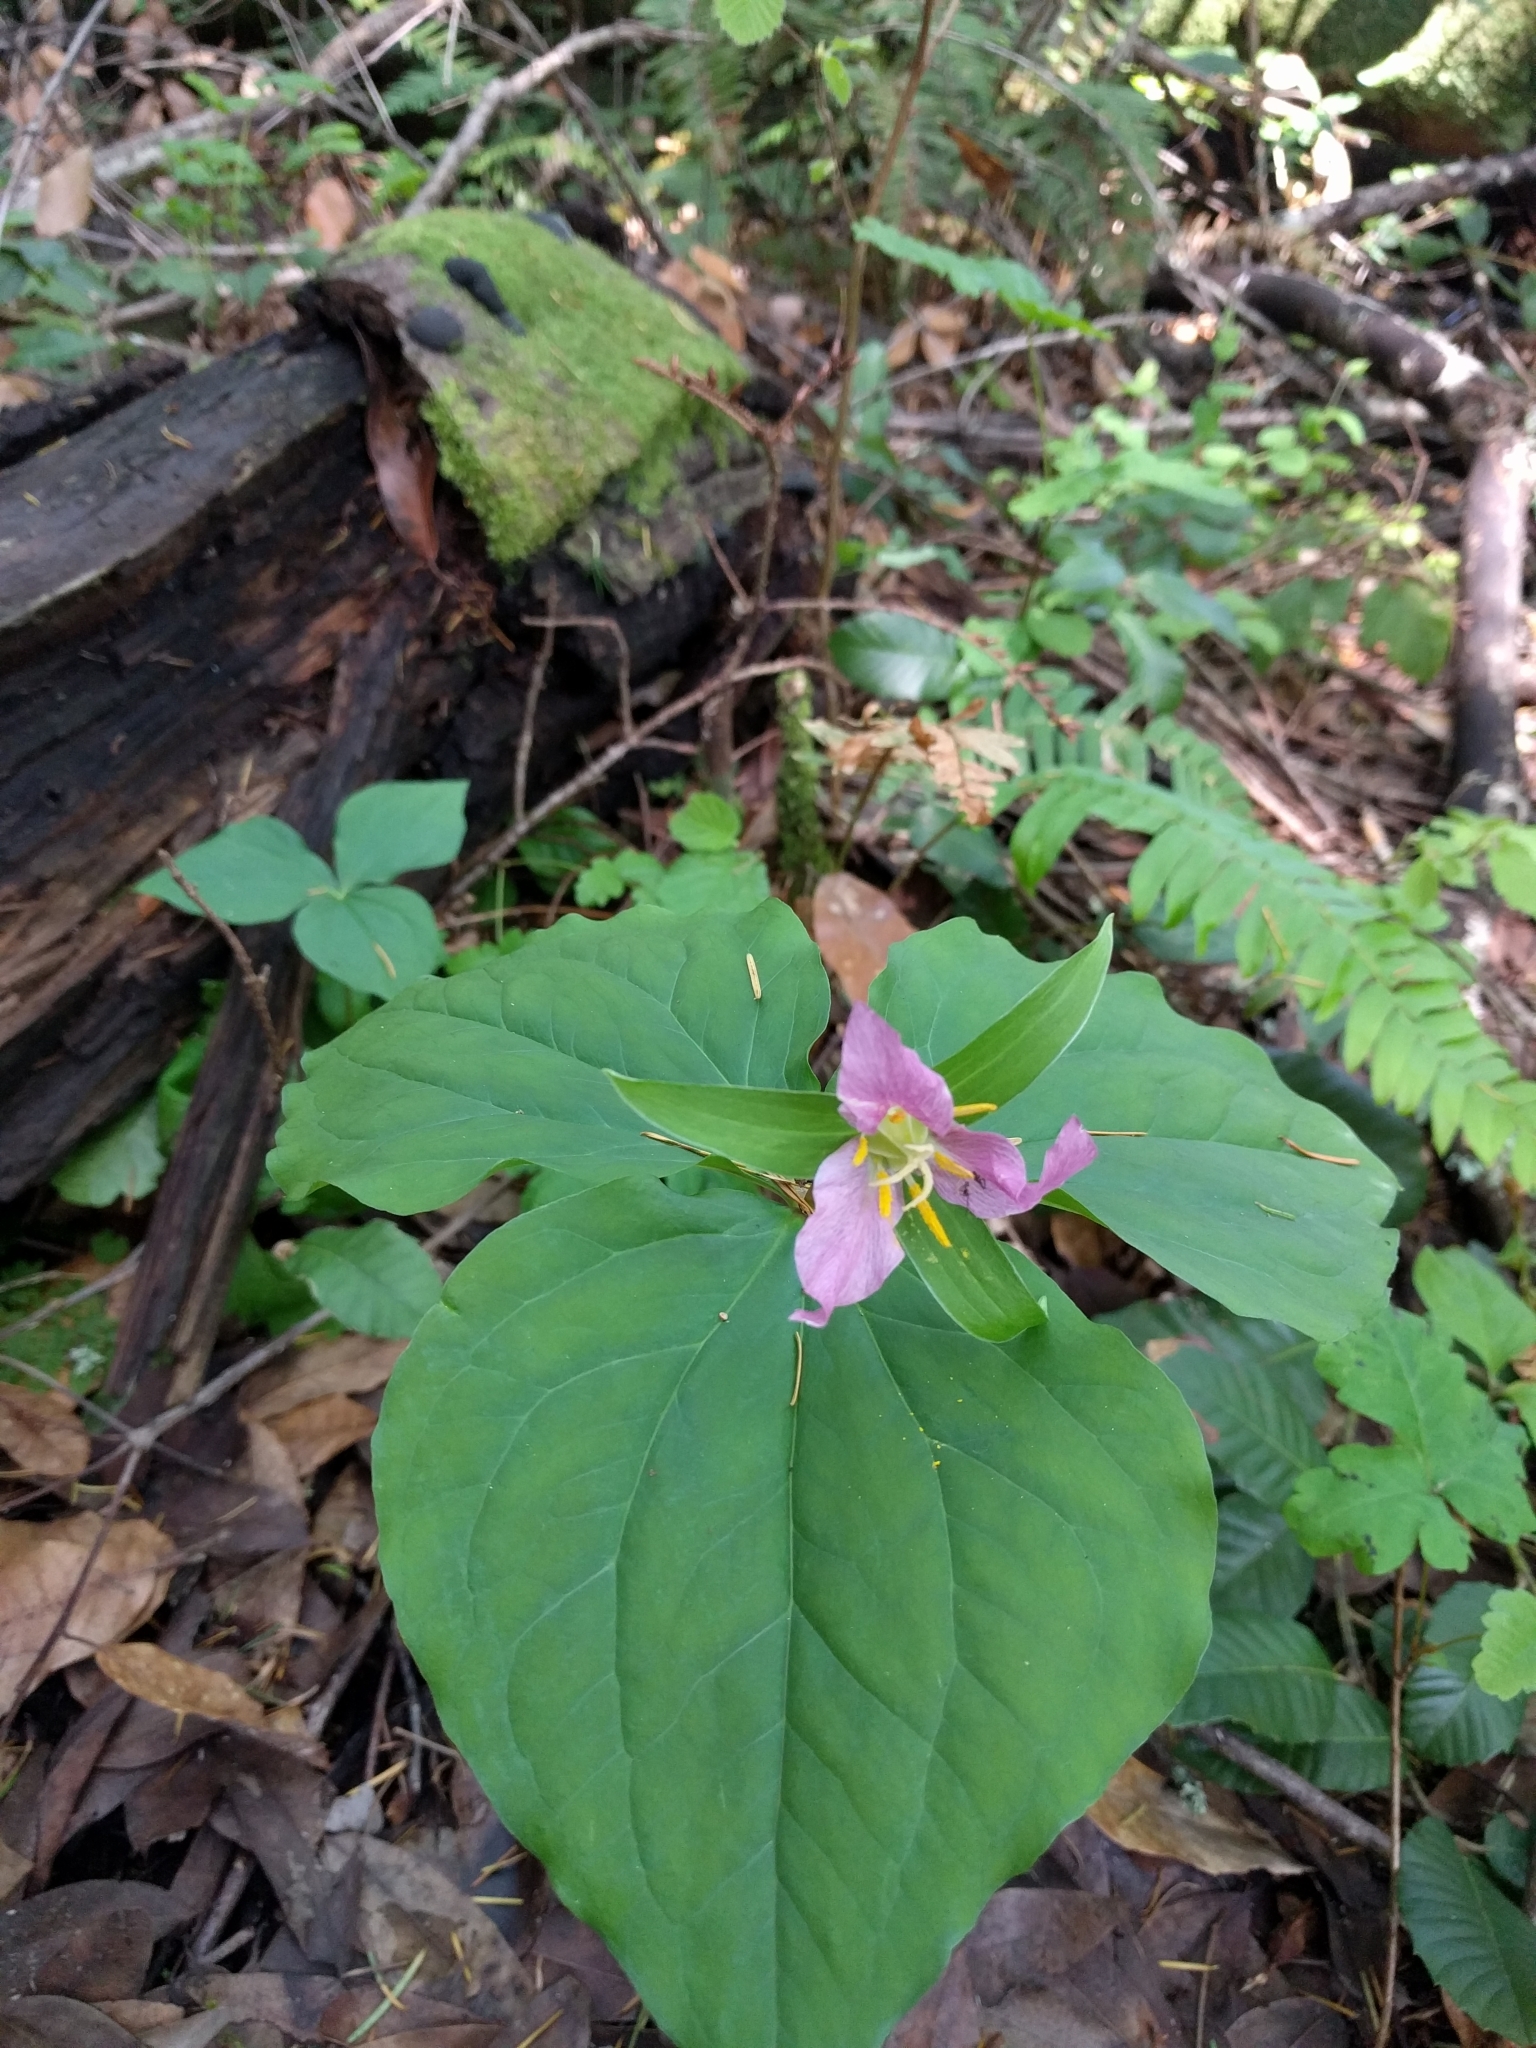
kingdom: Plantae
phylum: Tracheophyta
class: Liliopsida
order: Liliales
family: Melanthiaceae
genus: Trillium
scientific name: Trillium ovatum
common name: Pacific trillium
